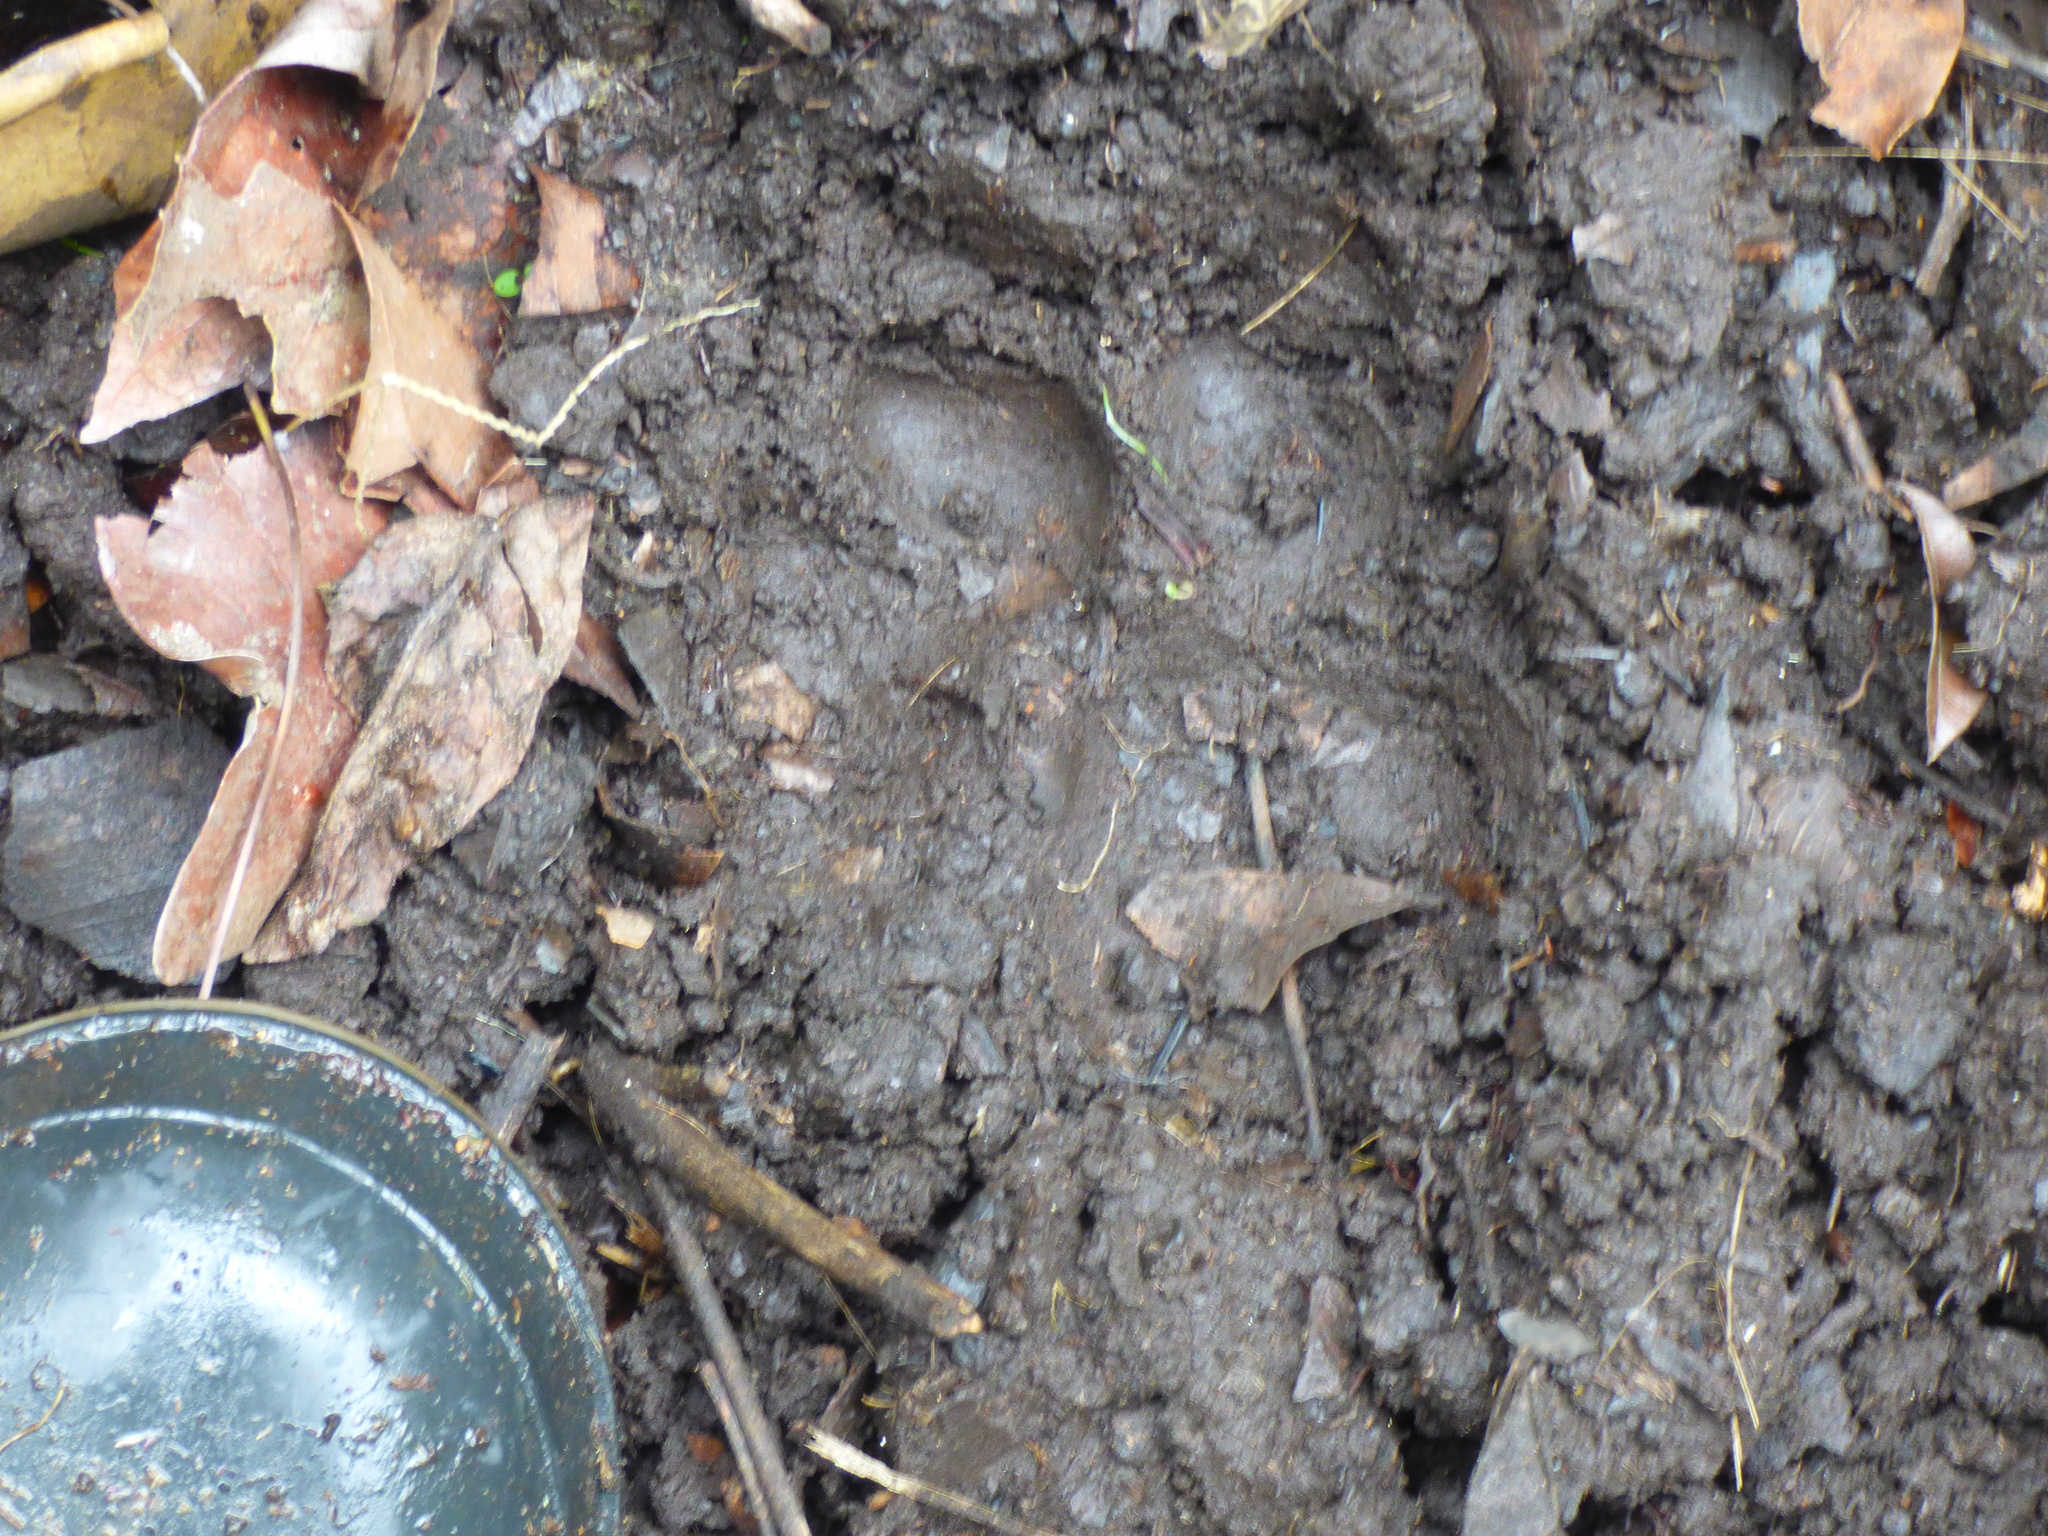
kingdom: Animalia
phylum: Chordata
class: Mammalia
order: Carnivora
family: Felidae
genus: Puma
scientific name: Puma concolor
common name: Puma
